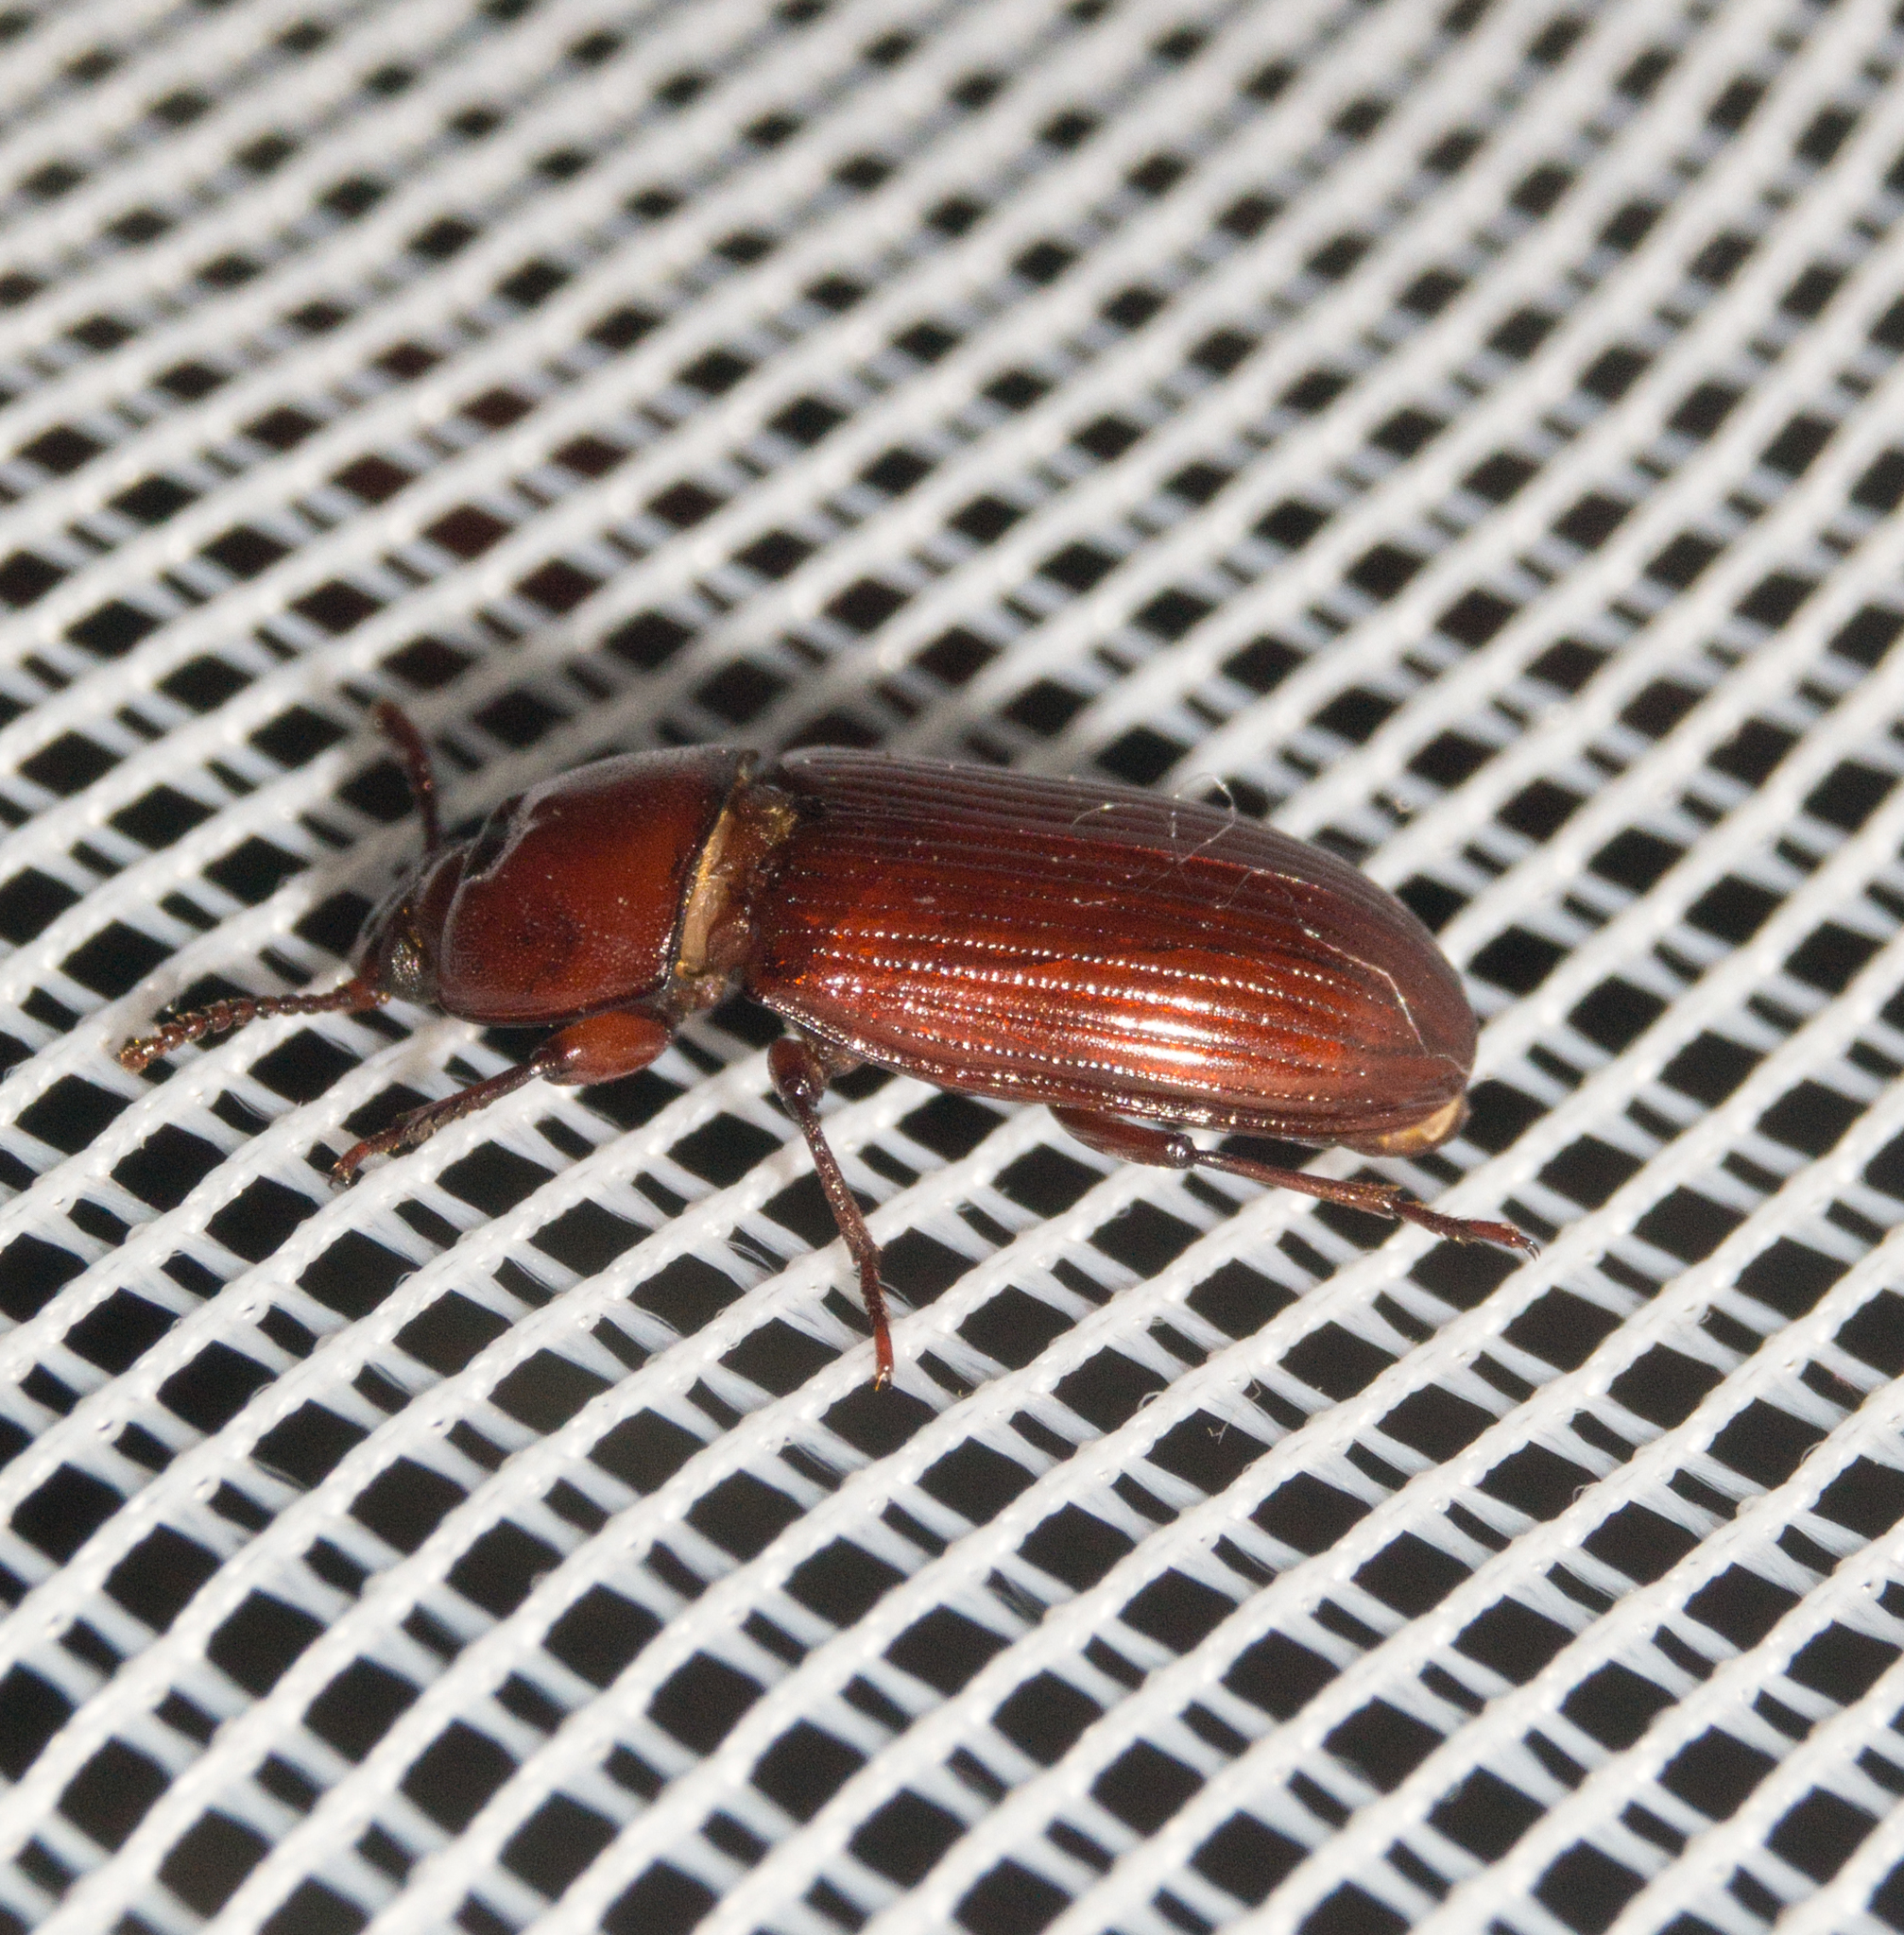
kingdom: Animalia
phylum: Arthropoda
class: Insecta
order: Coleoptera
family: Tenebrionidae
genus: Uloma
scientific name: Uloma culinaris
